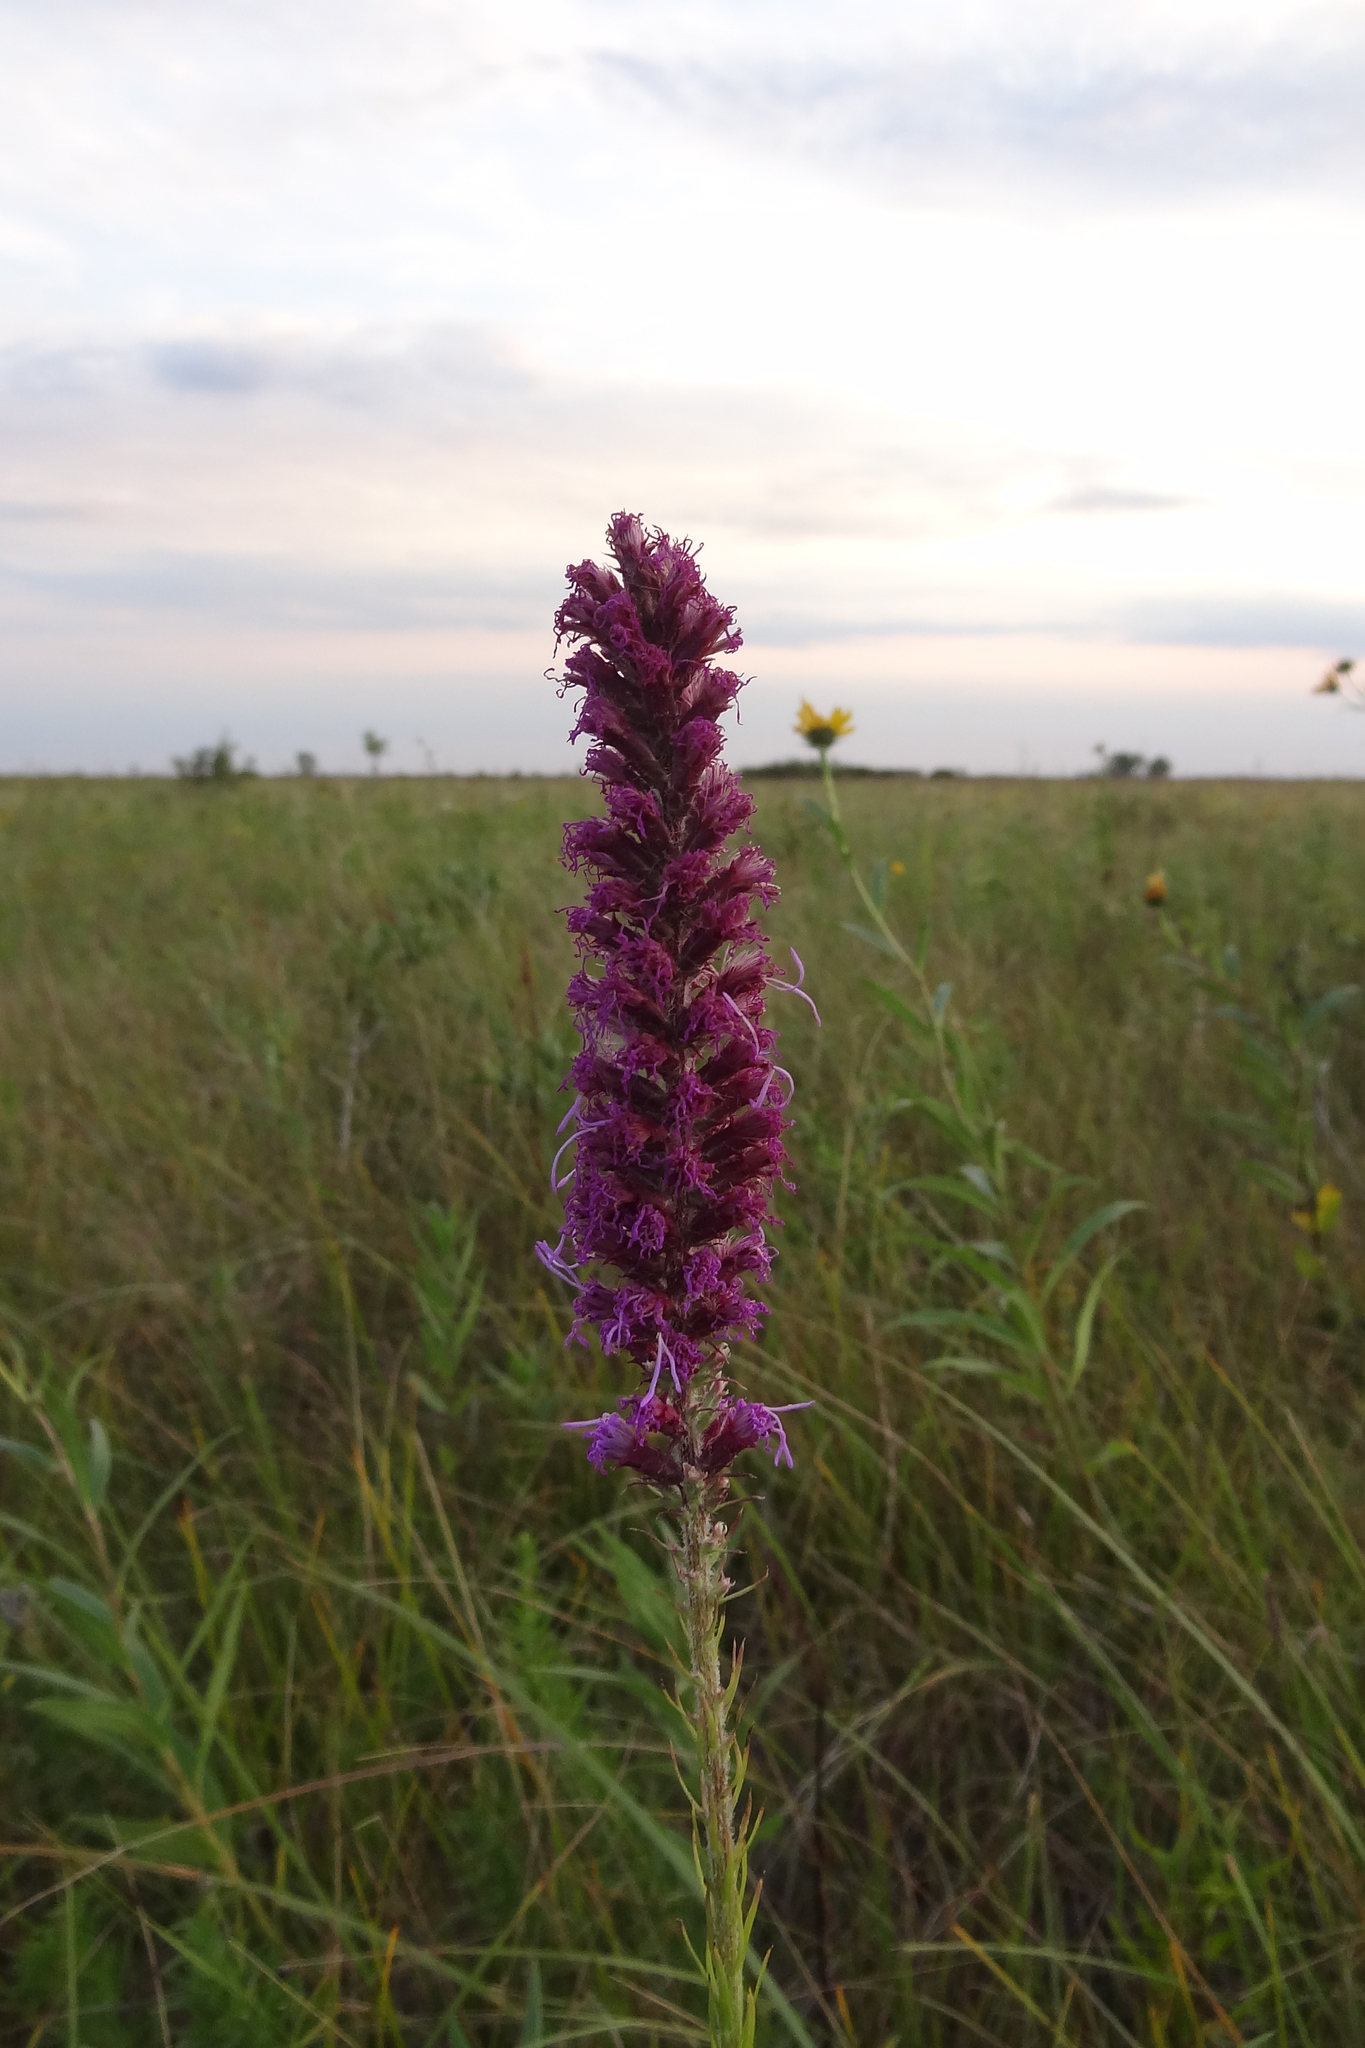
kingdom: Plantae
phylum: Tracheophyta
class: Magnoliopsida
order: Asterales
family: Asteraceae
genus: Liatris
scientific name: Liatris pycnostachya
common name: Cattail gayfeather
